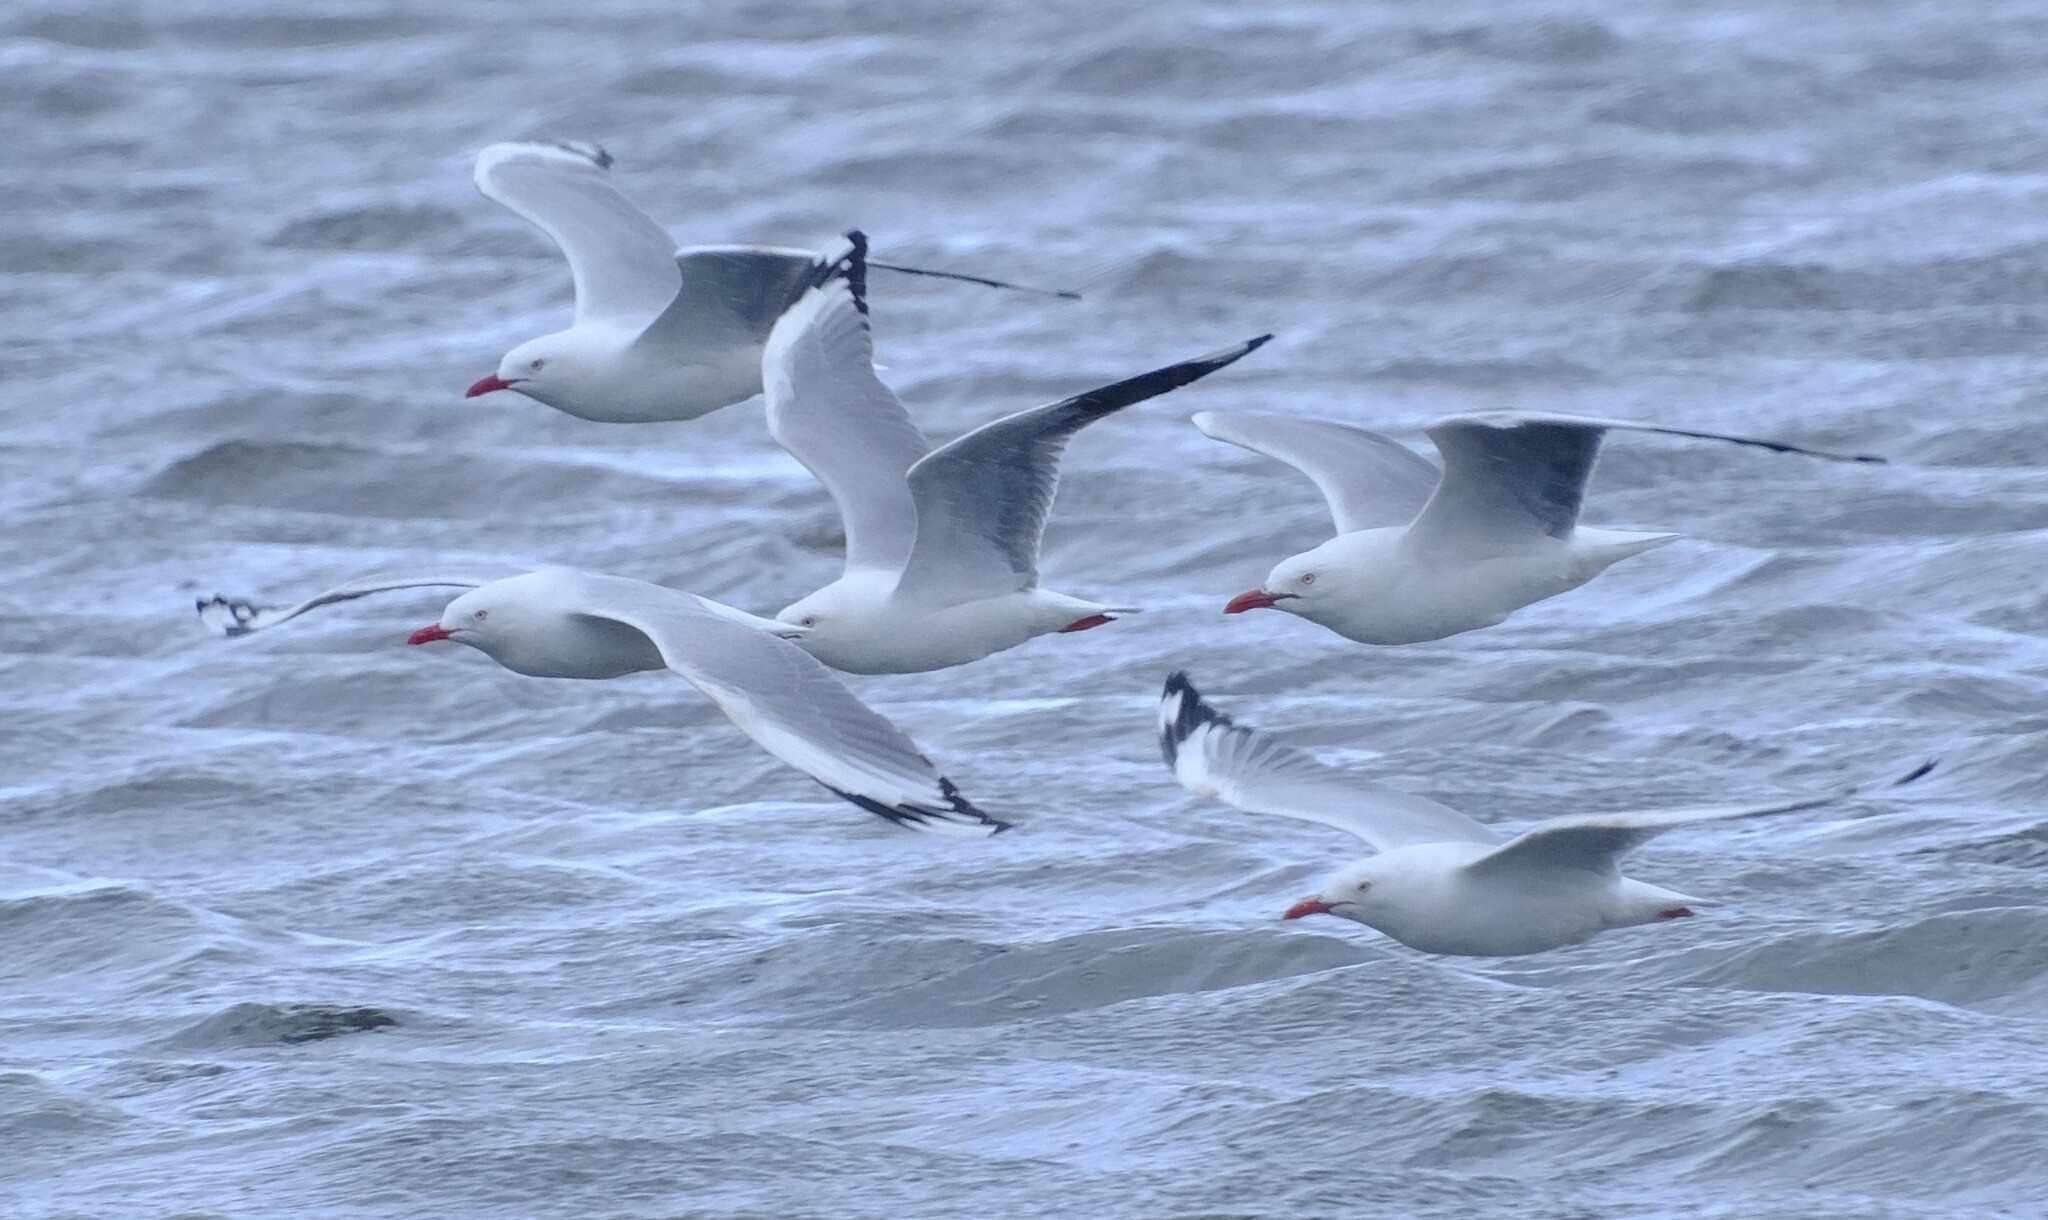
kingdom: Animalia
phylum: Chordata
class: Aves
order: Charadriiformes
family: Laridae
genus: Chroicocephalus
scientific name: Chroicocephalus novaehollandiae
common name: Silver gull
